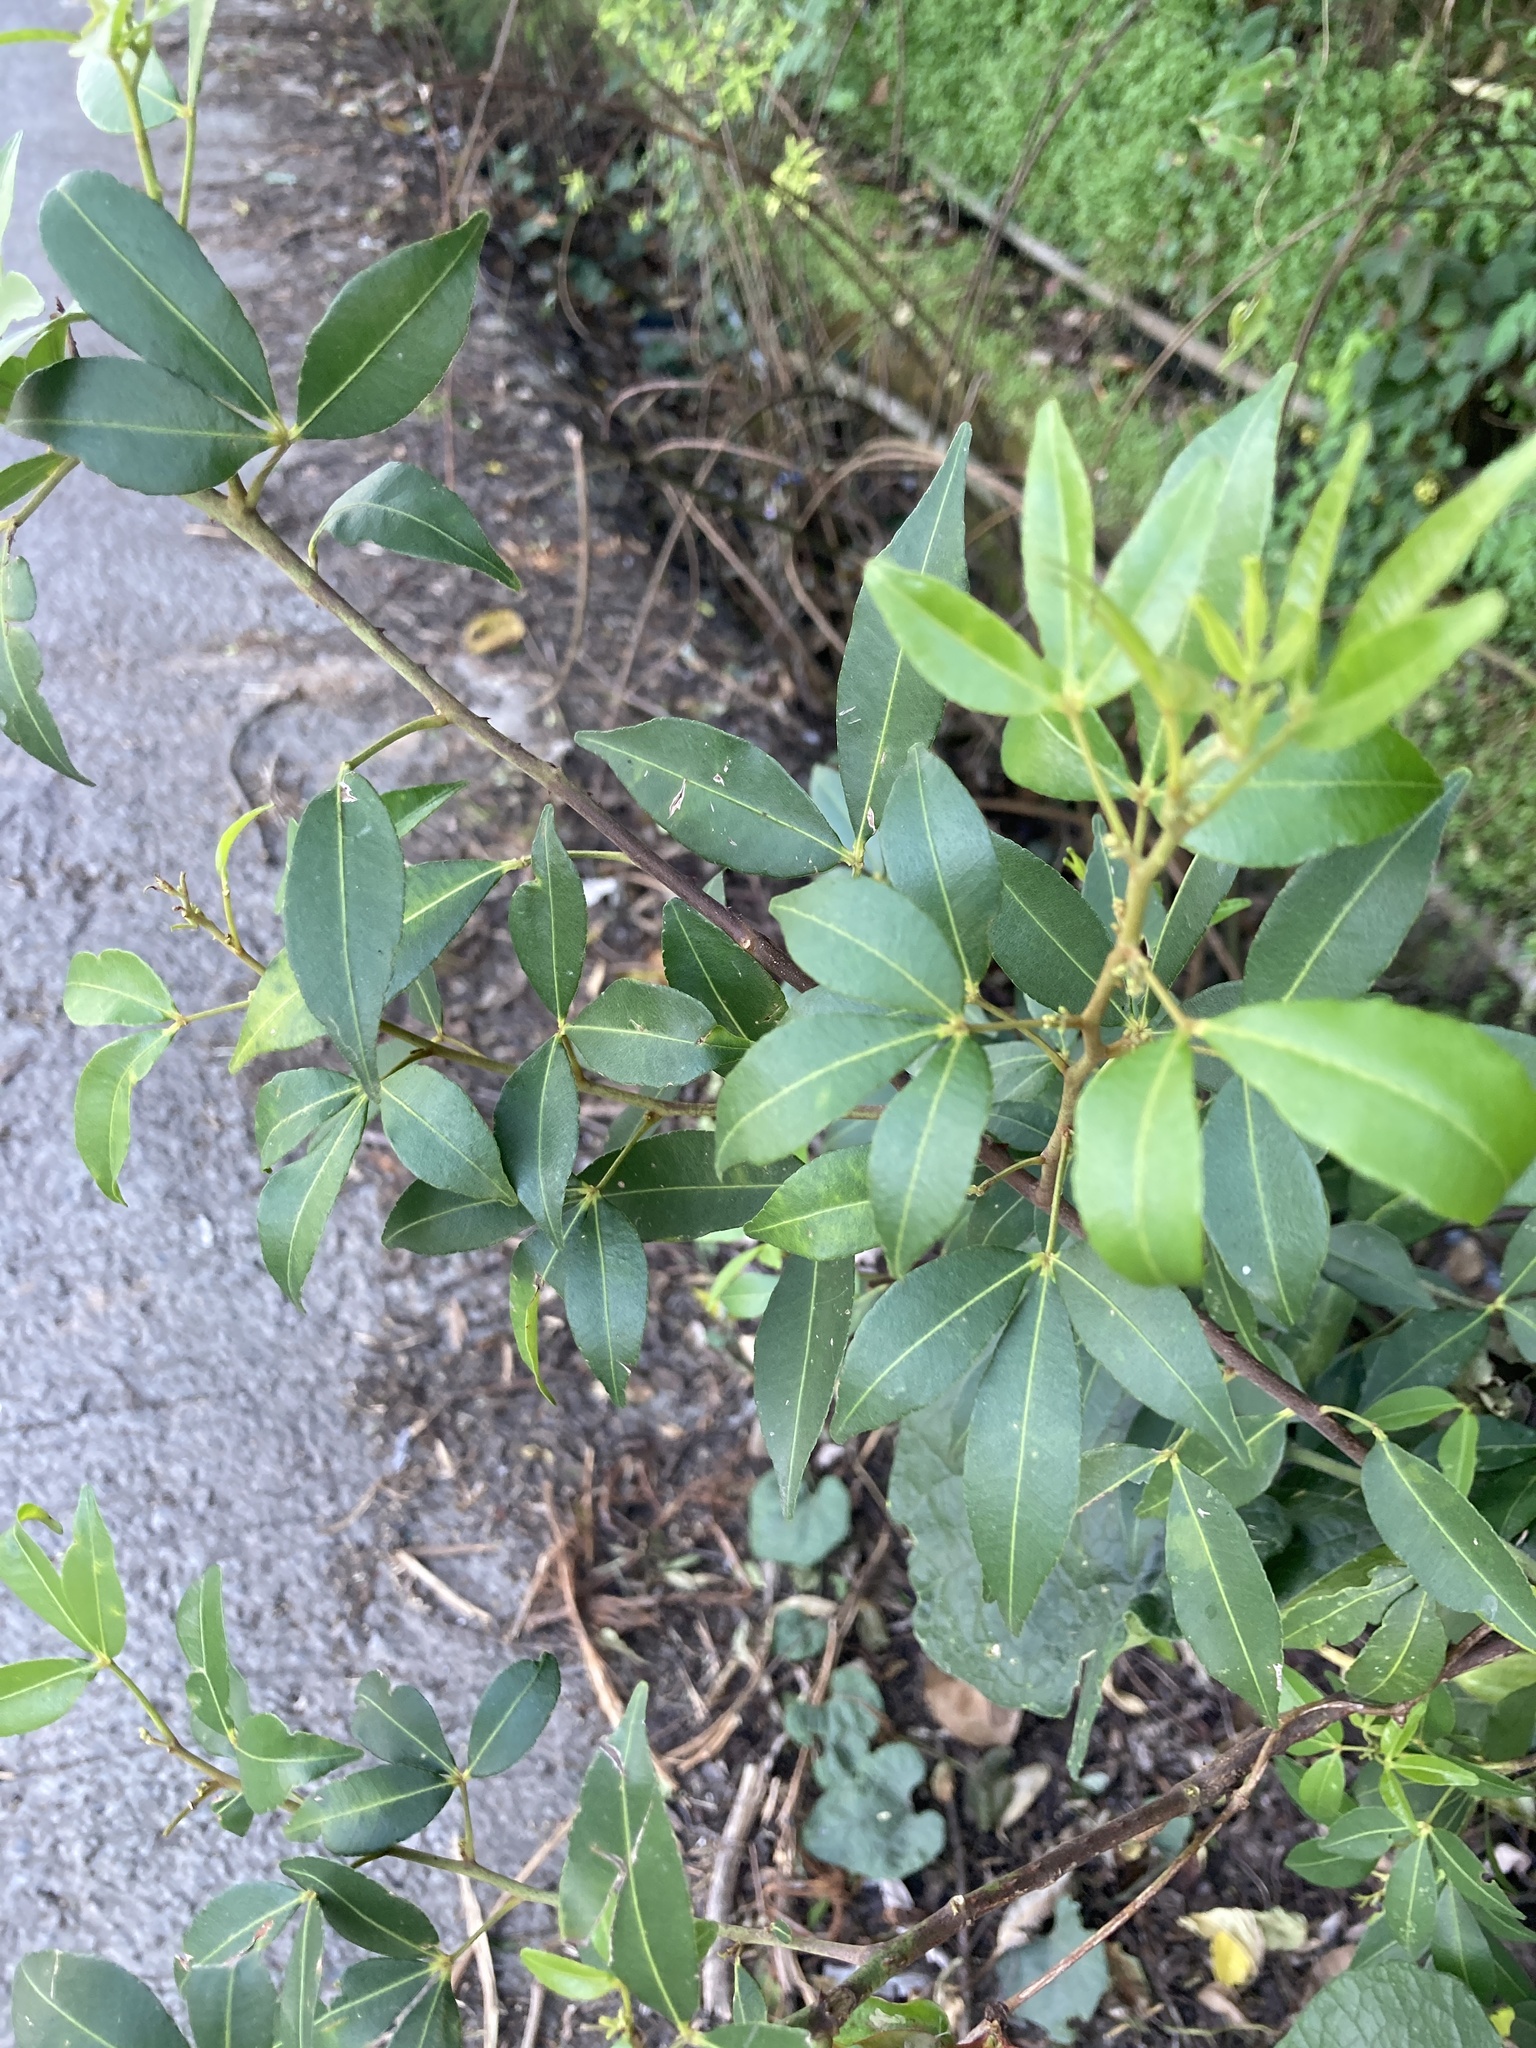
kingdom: Plantae
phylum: Tracheophyta
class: Magnoliopsida
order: Sapindales
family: Rutaceae
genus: Zanthoxylum
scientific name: Zanthoxylum asiaticum
